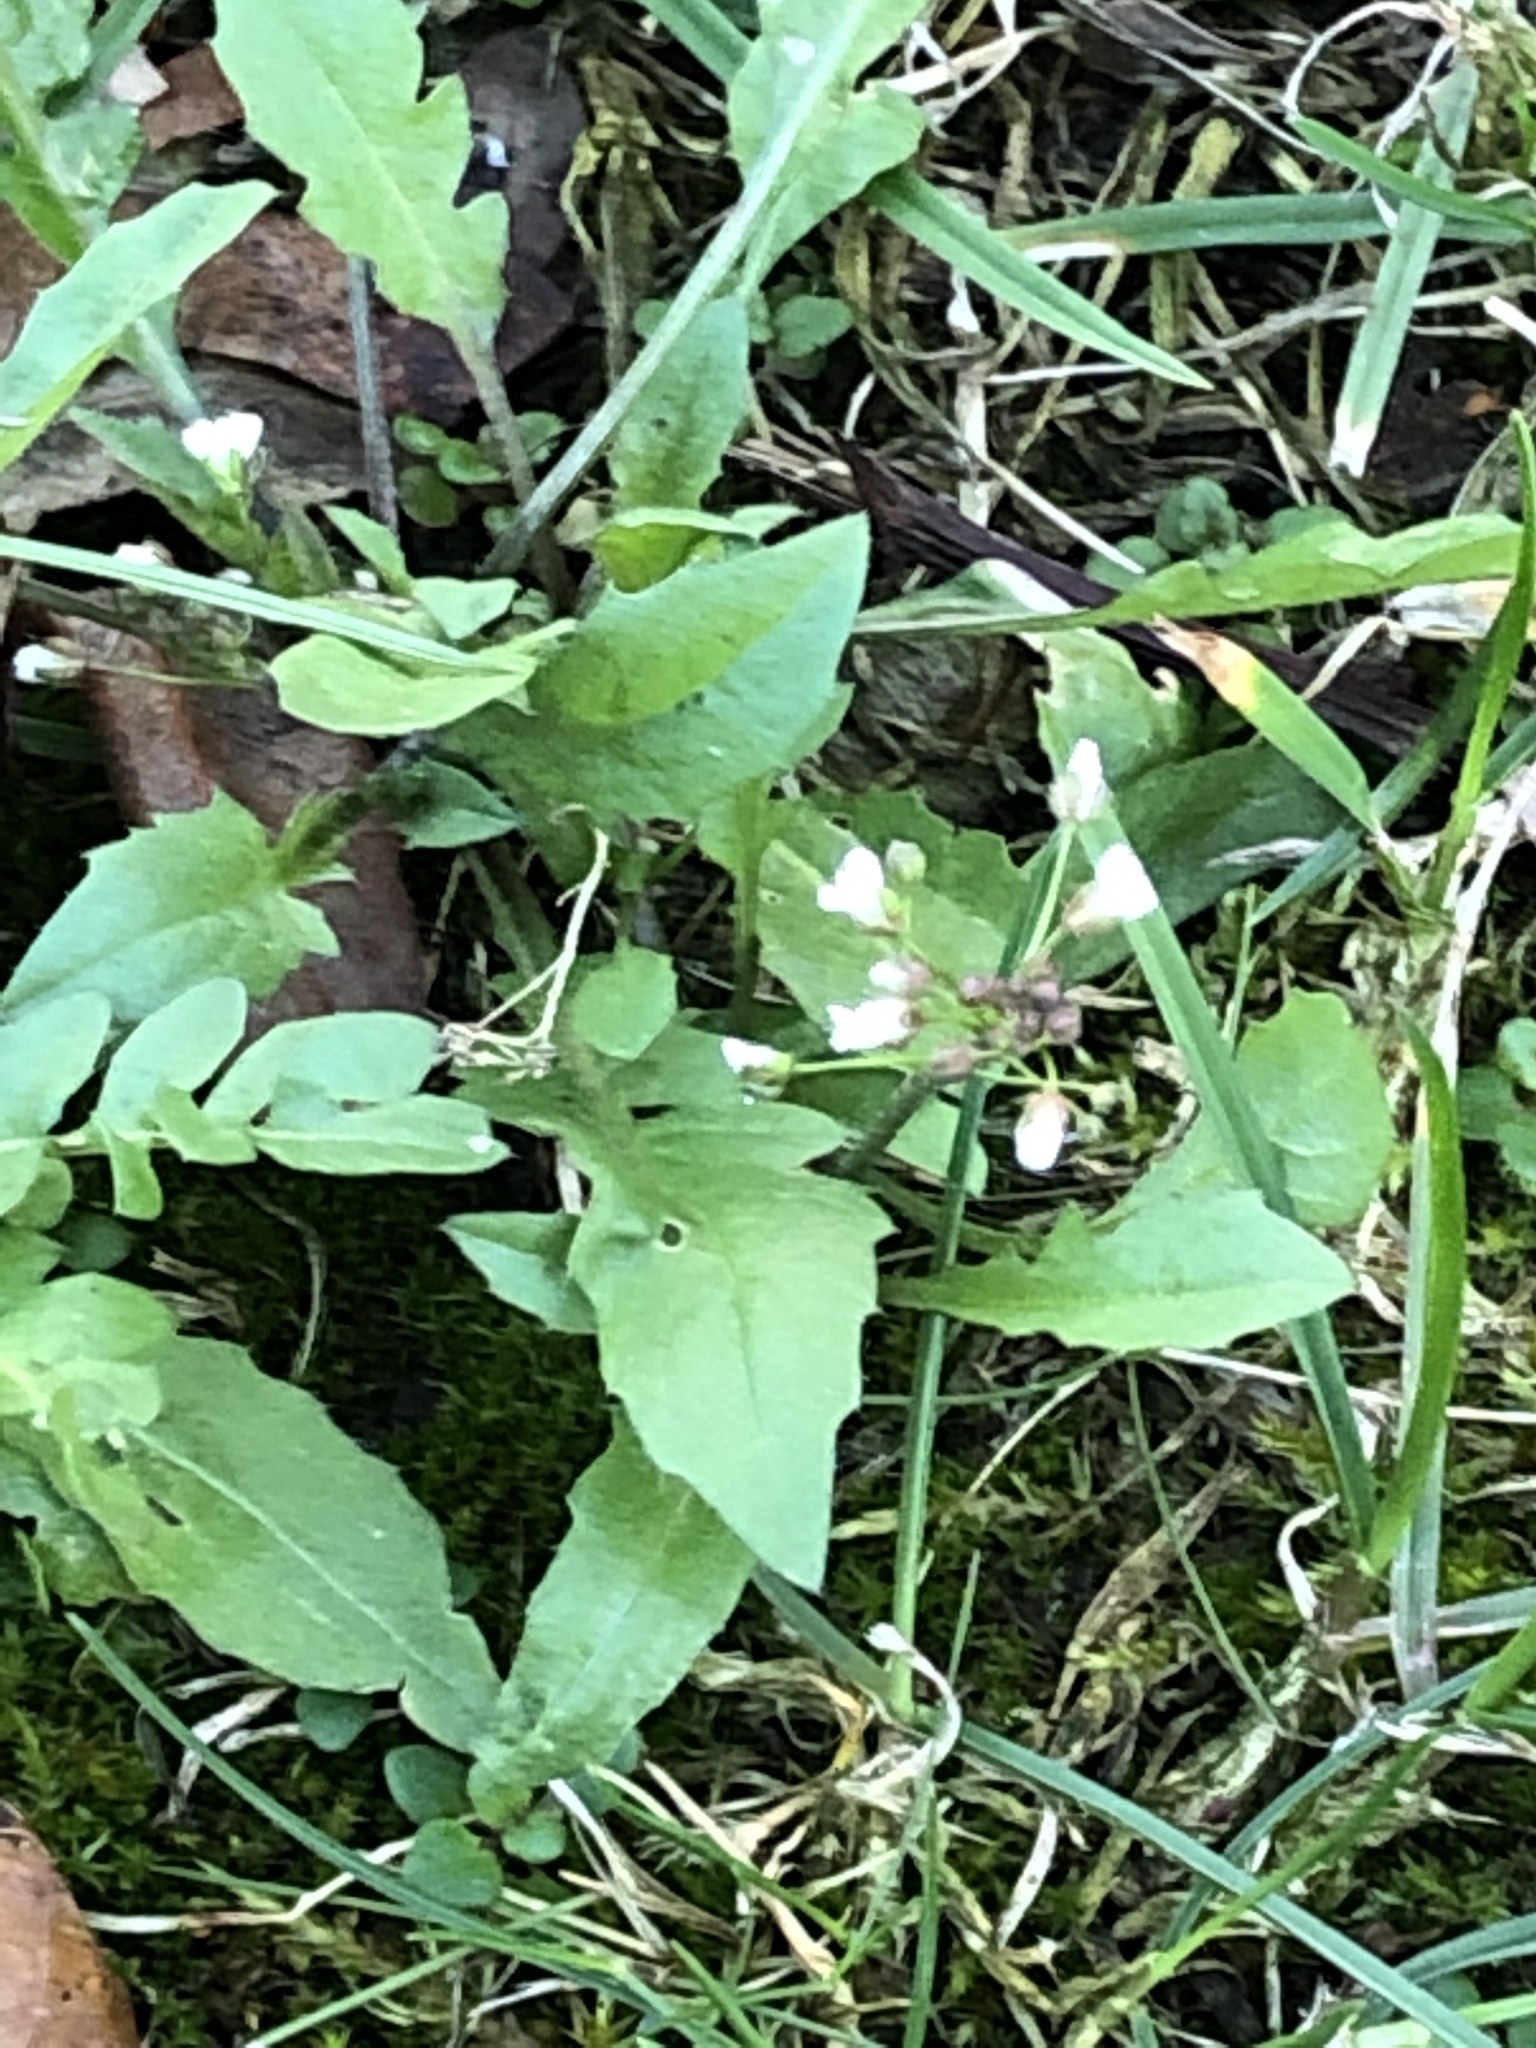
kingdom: Plantae
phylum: Tracheophyta
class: Magnoliopsida
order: Brassicales
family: Brassicaceae
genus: Capsella
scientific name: Capsella bursa-pastoris
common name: Shepherd's purse
